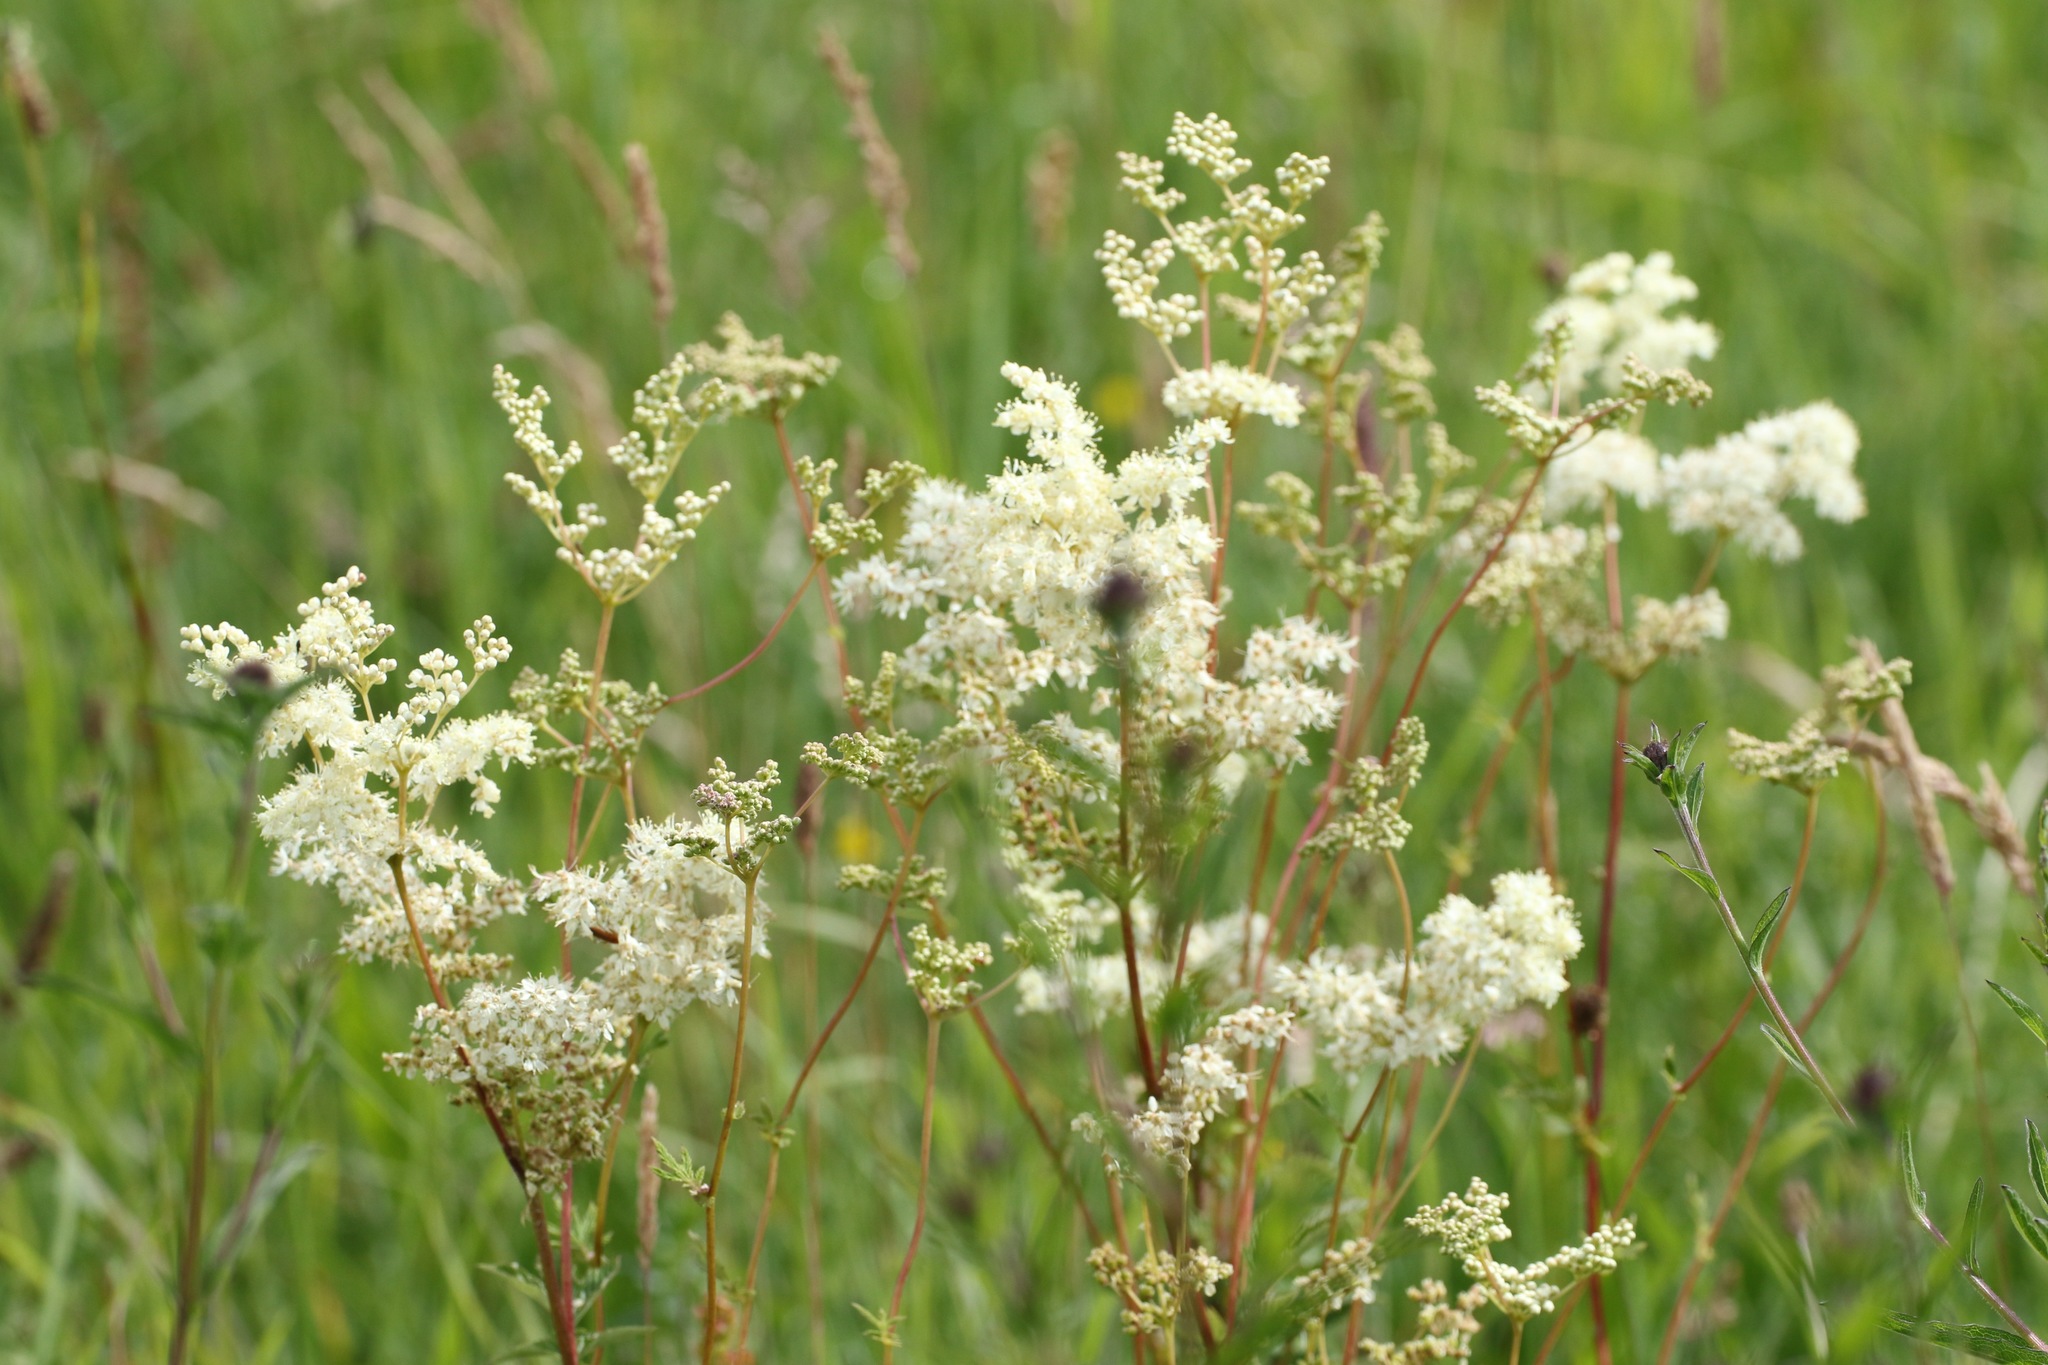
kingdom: Plantae
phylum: Tracheophyta
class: Magnoliopsida
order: Rosales
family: Rosaceae
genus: Filipendula
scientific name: Filipendula ulmaria
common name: Meadowsweet
